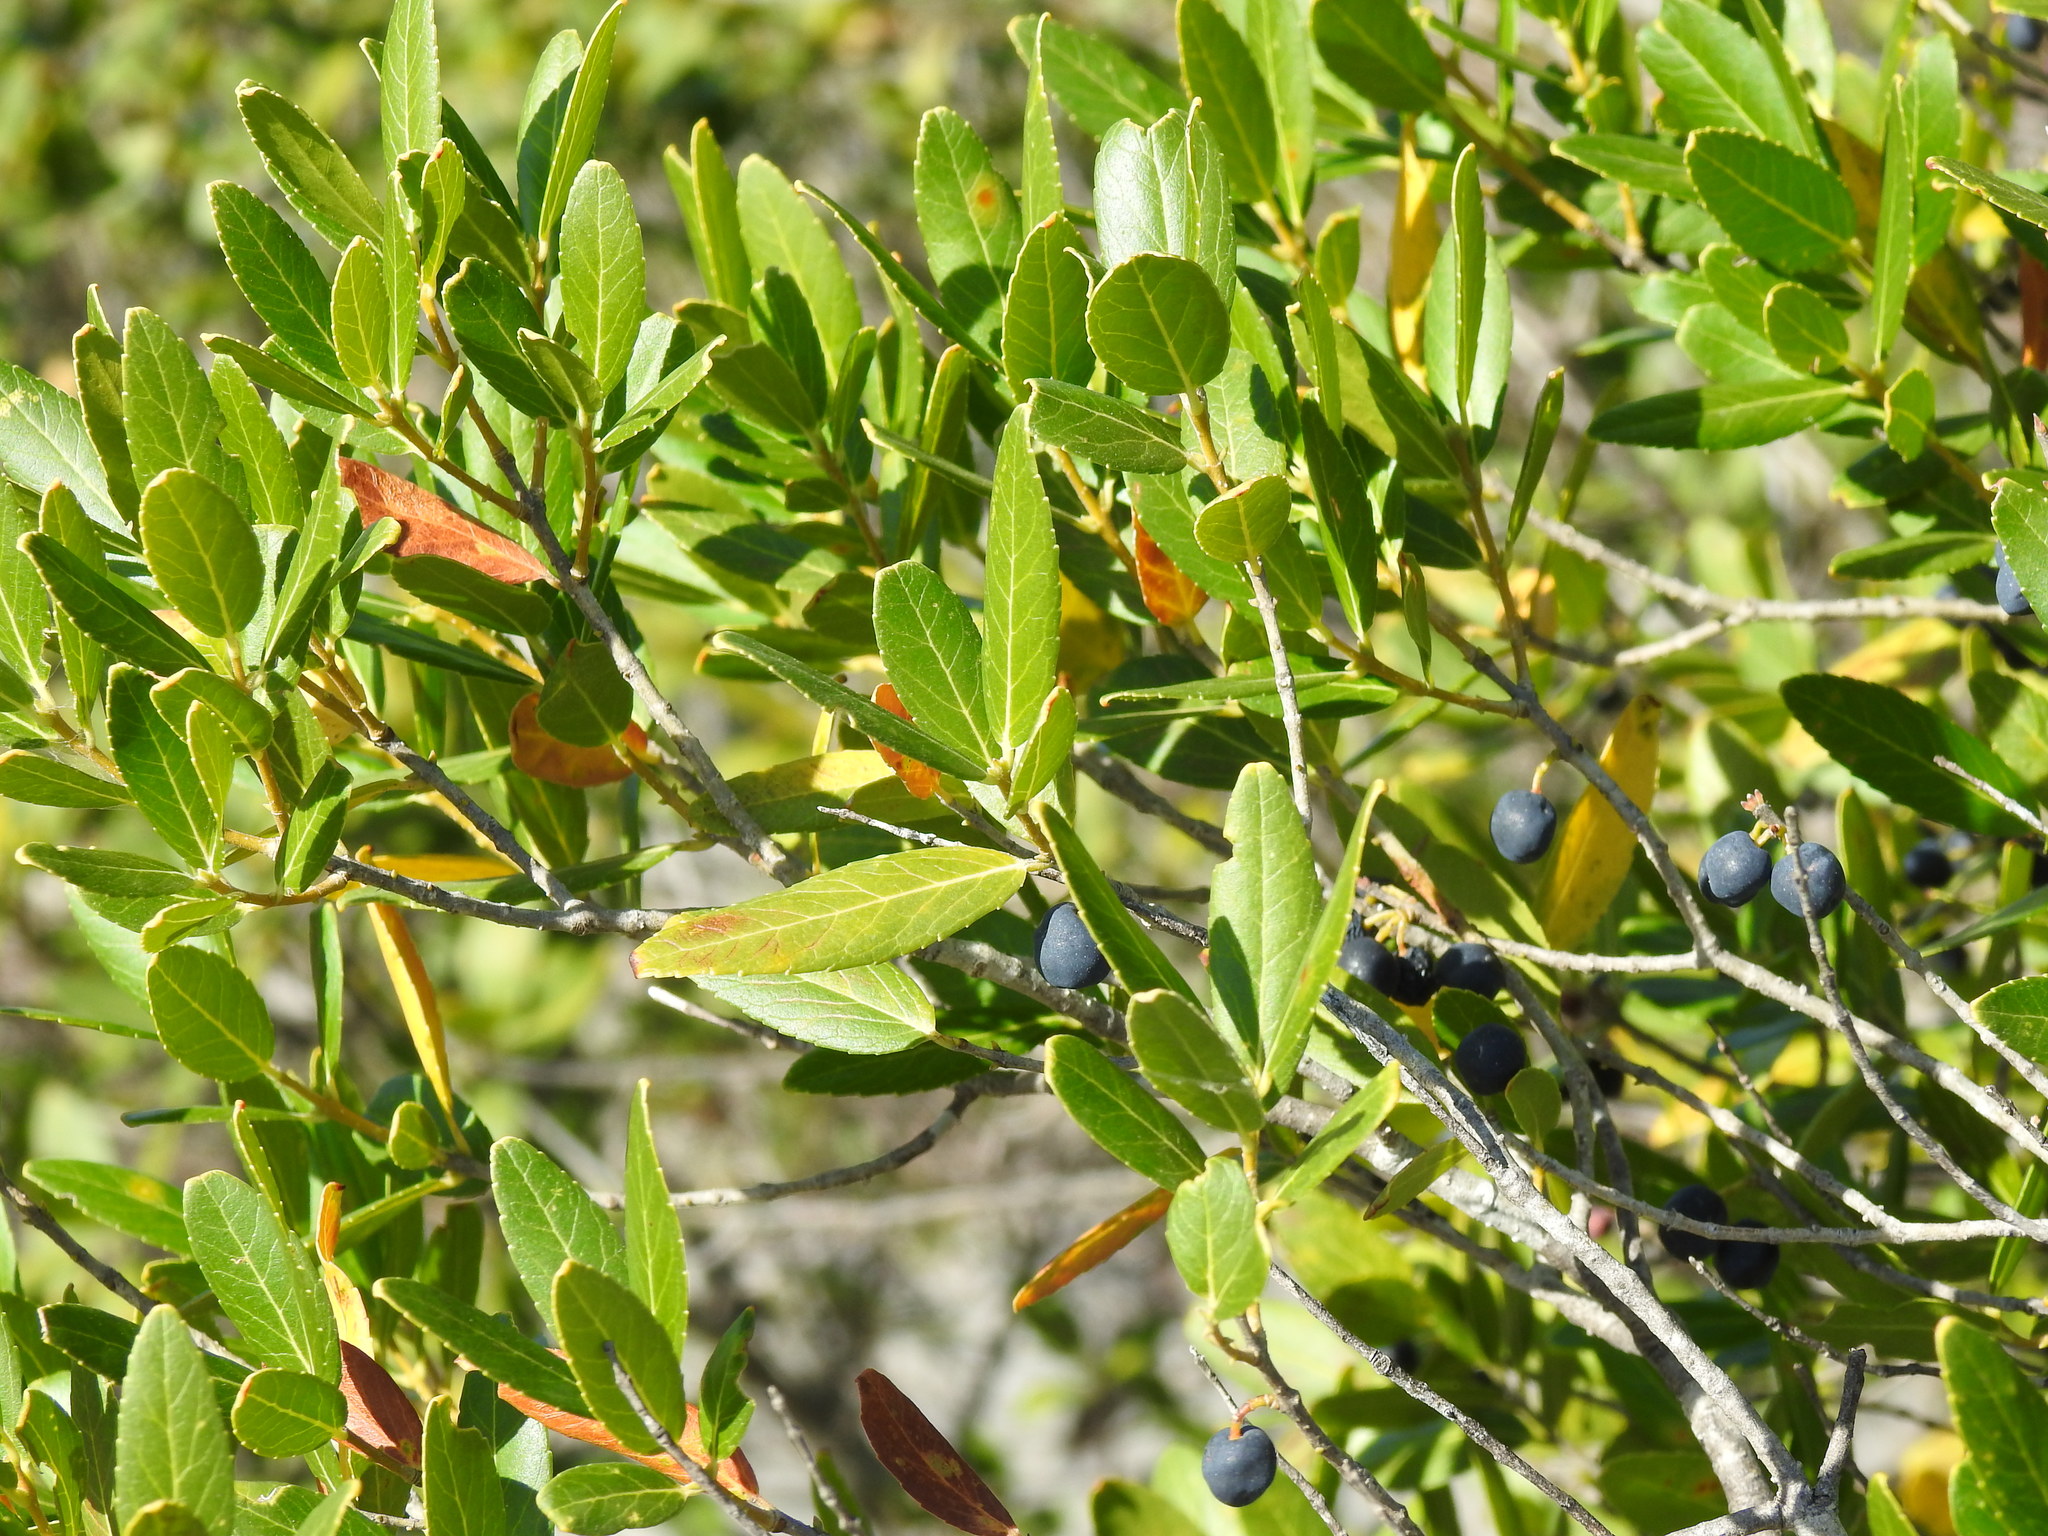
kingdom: Plantae
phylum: Tracheophyta
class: Magnoliopsida
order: Lamiales
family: Oleaceae
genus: Phillyrea
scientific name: Phillyrea latifolia
